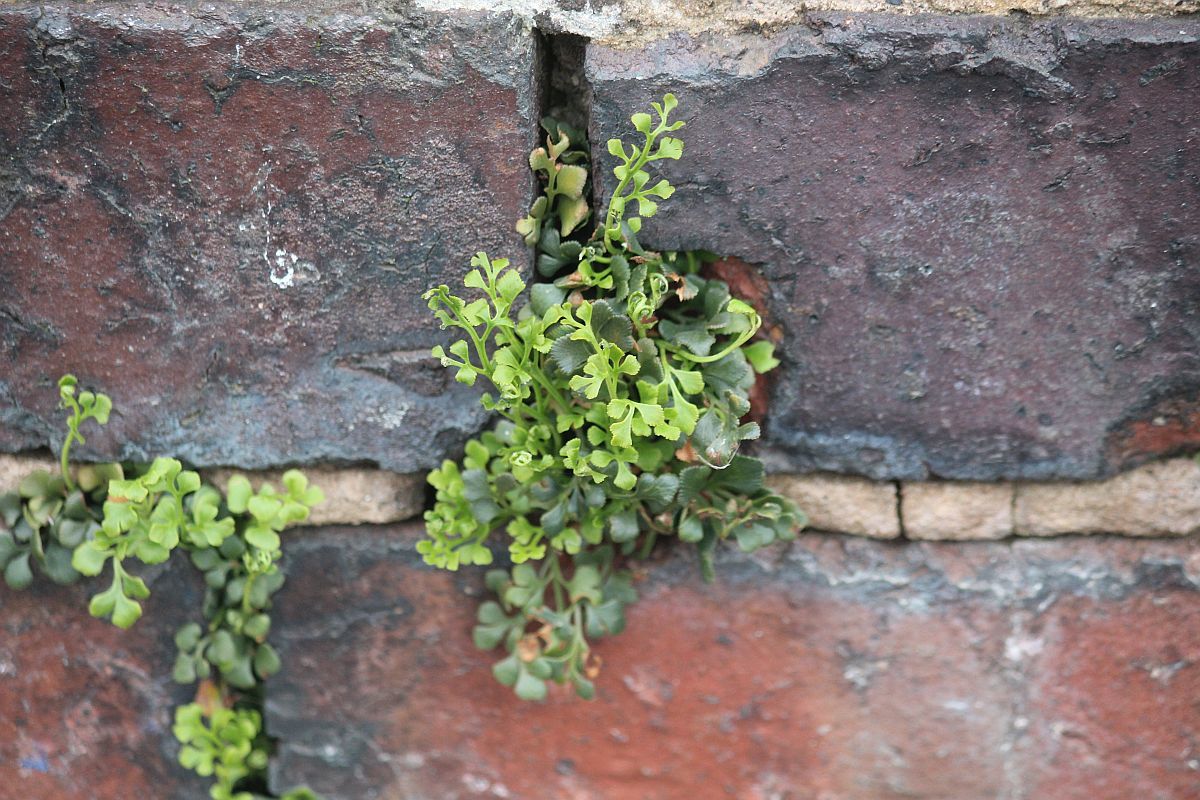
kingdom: Plantae
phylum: Tracheophyta
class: Polypodiopsida
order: Polypodiales
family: Aspleniaceae
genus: Asplenium
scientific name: Asplenium ruta-muraria
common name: Wall-rue
